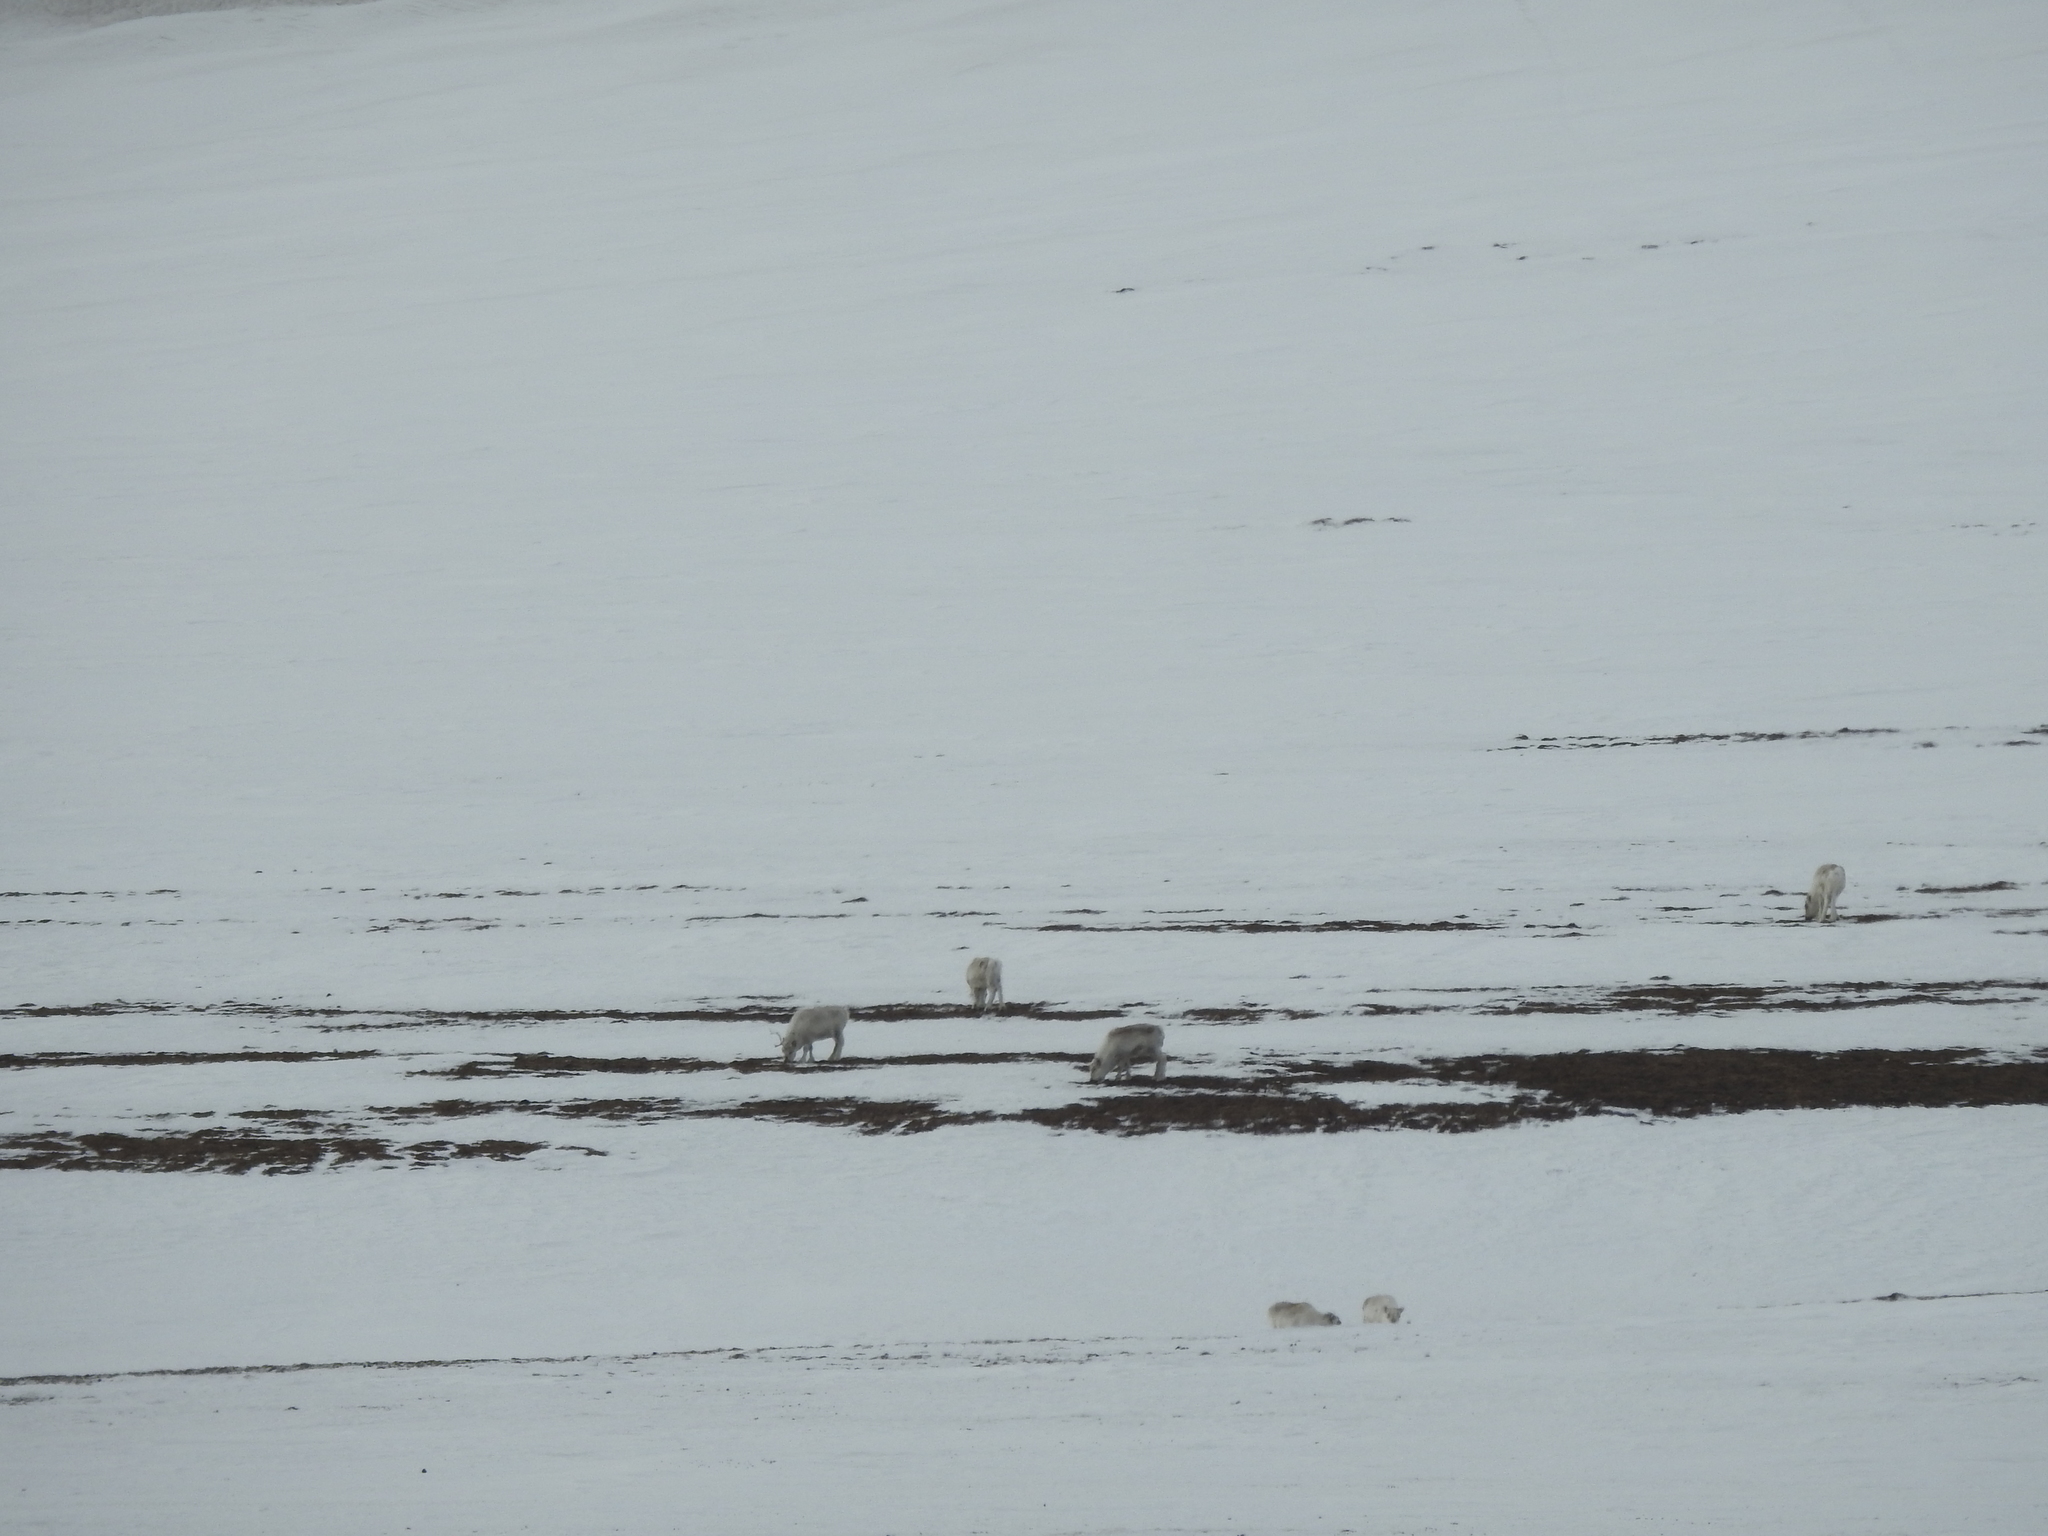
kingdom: Animalia
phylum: Chordata
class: Mammalia
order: Artiodactyla
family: Cervidae
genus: Rangifer
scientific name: Rangifer tarandus
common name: Reindeer
